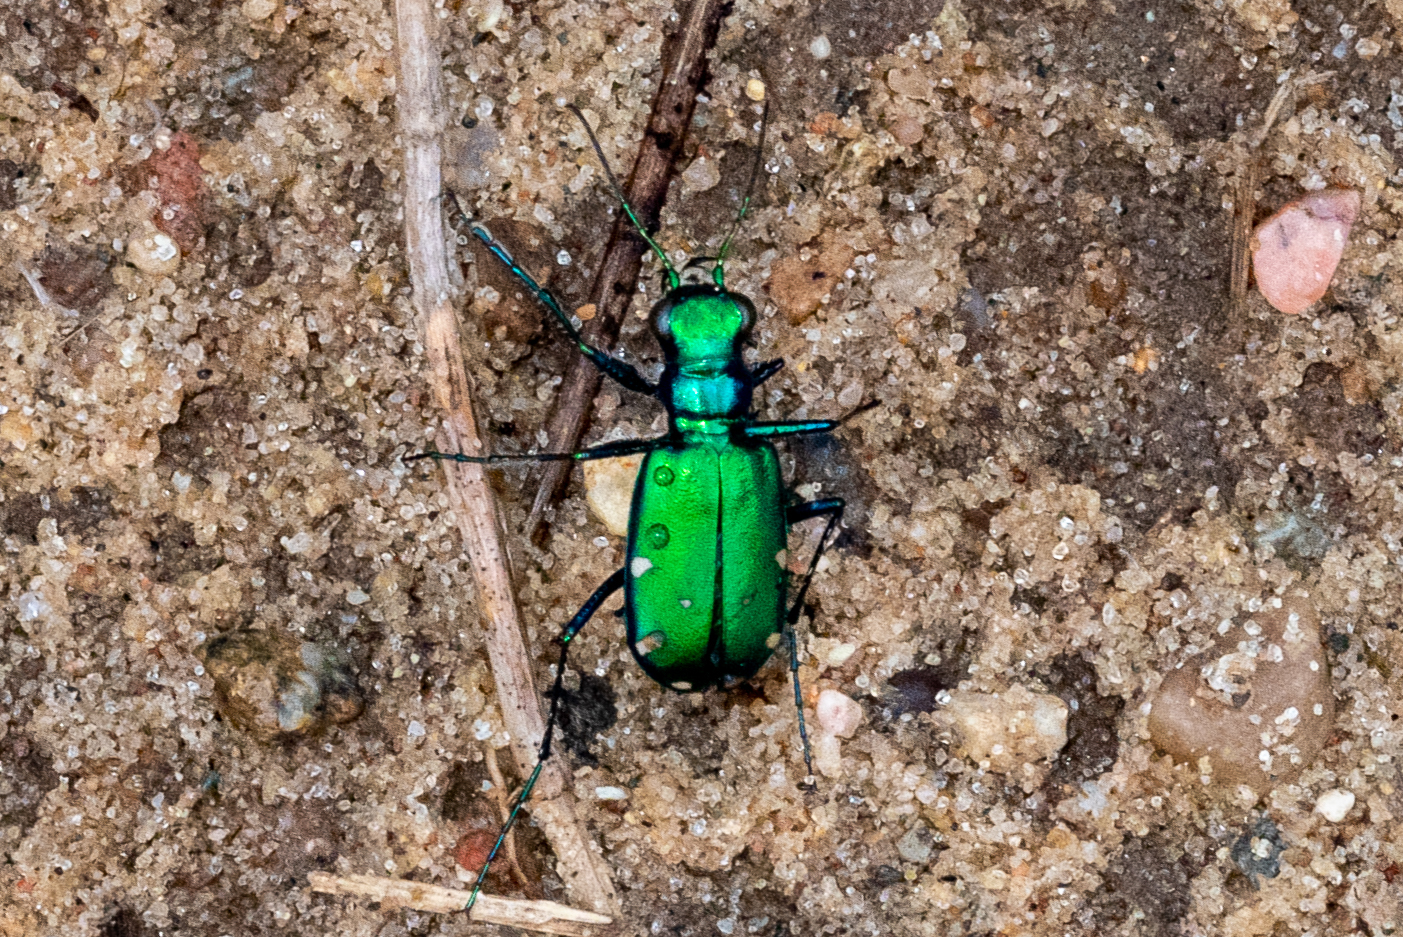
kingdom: Animalia
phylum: Arthropoda
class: Insecta
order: Coleoptera
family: Carabidae
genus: Cicindela
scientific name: Cicindela sexguttata
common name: Six-spotted tiger beetle
